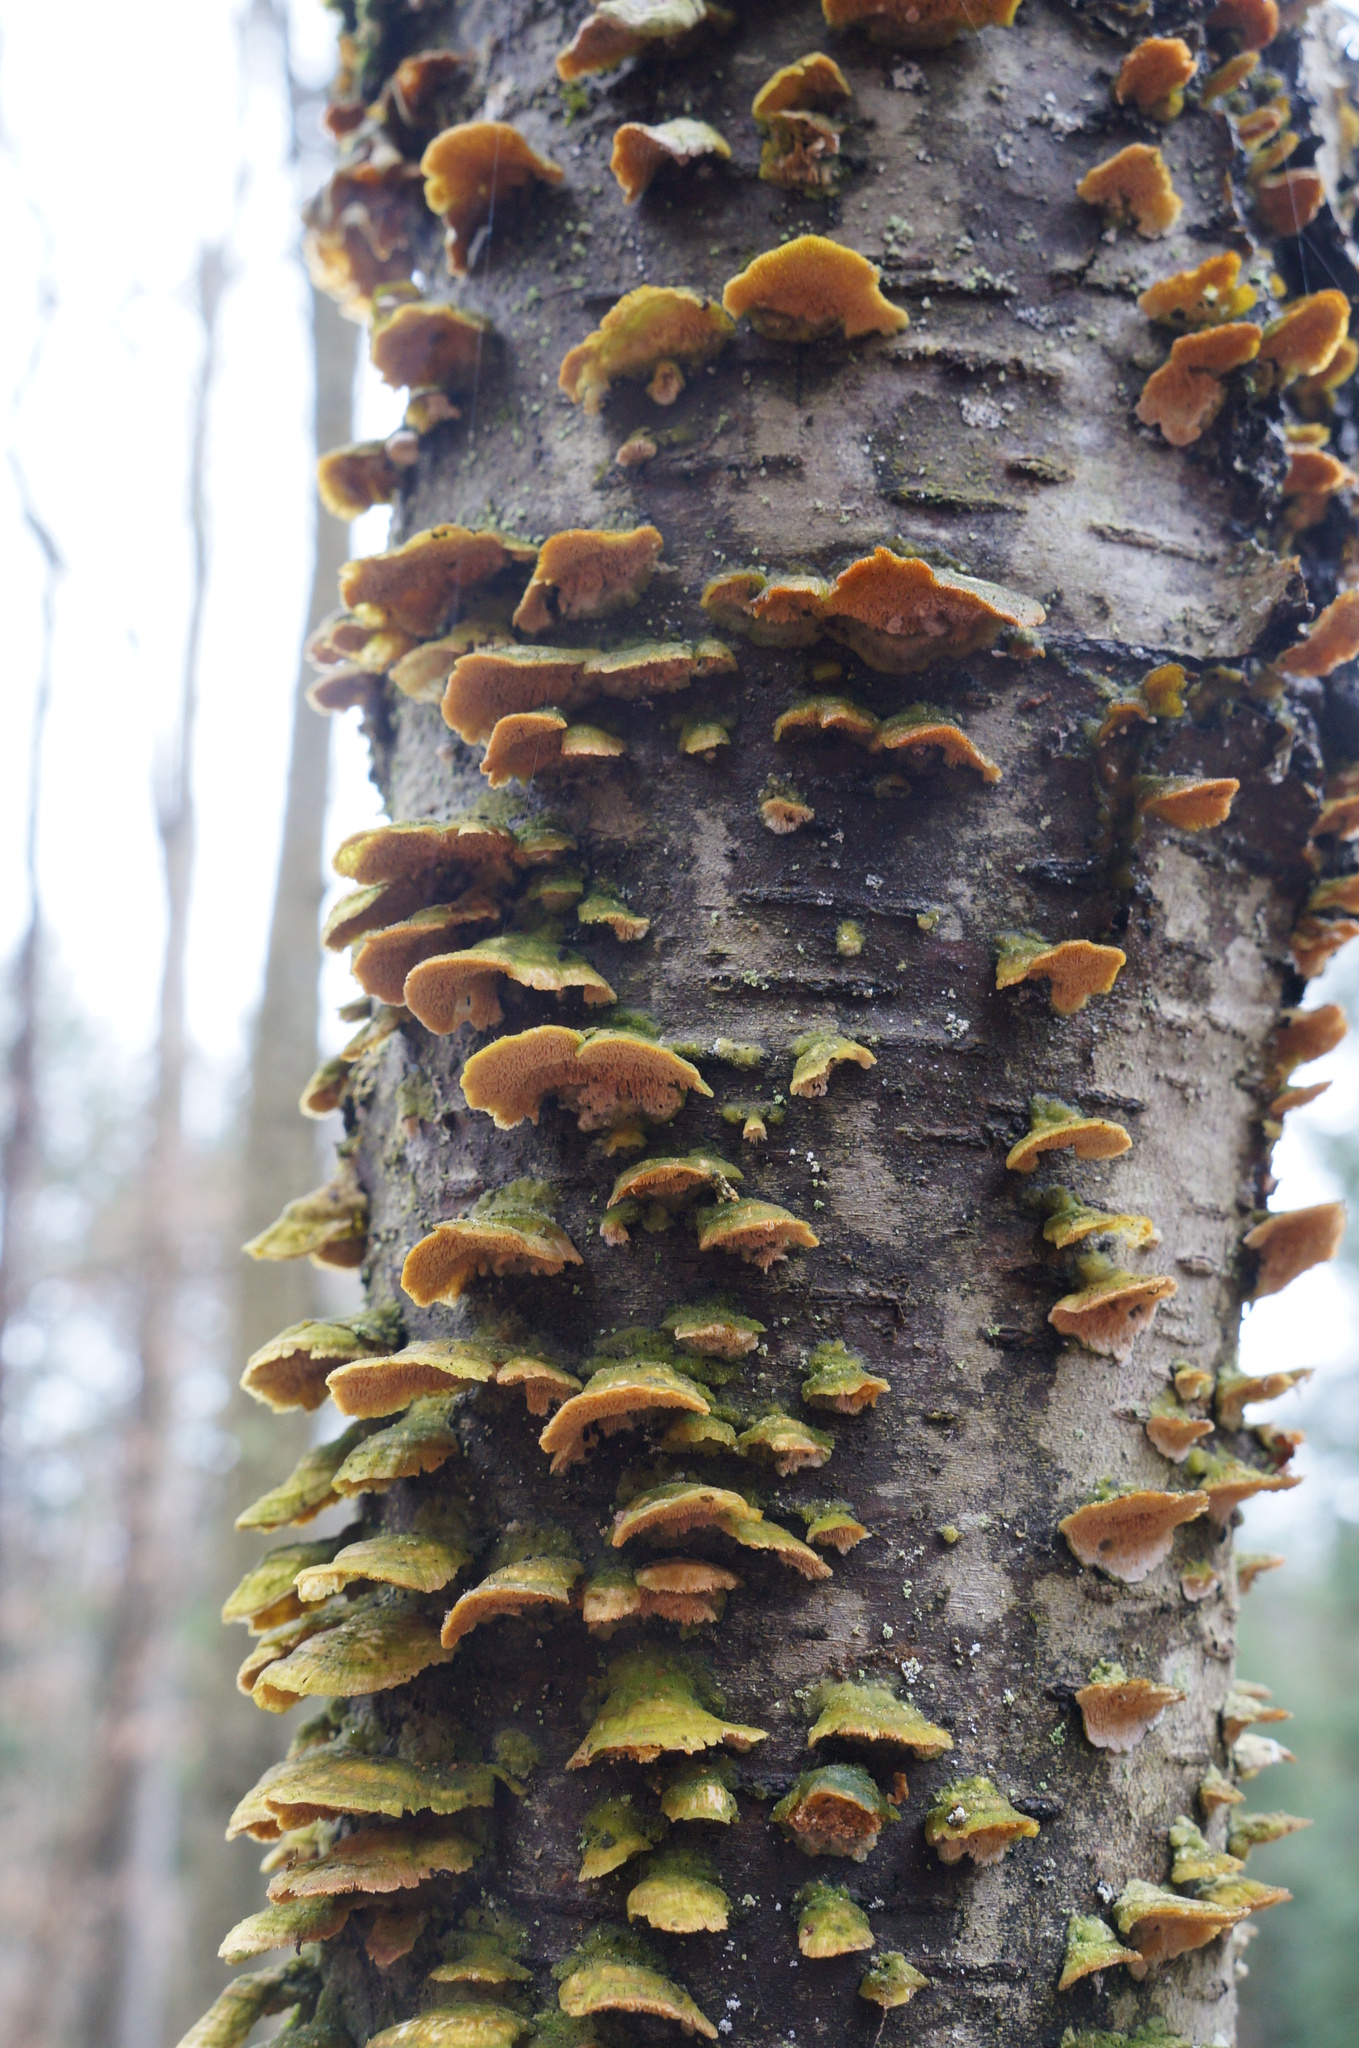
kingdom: Fungi
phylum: Basidiomycota
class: Agaricomycetes
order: Hymenochaetales
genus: Trichaptum
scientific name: Trichaptum biforme
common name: Violet-toothed polypore
